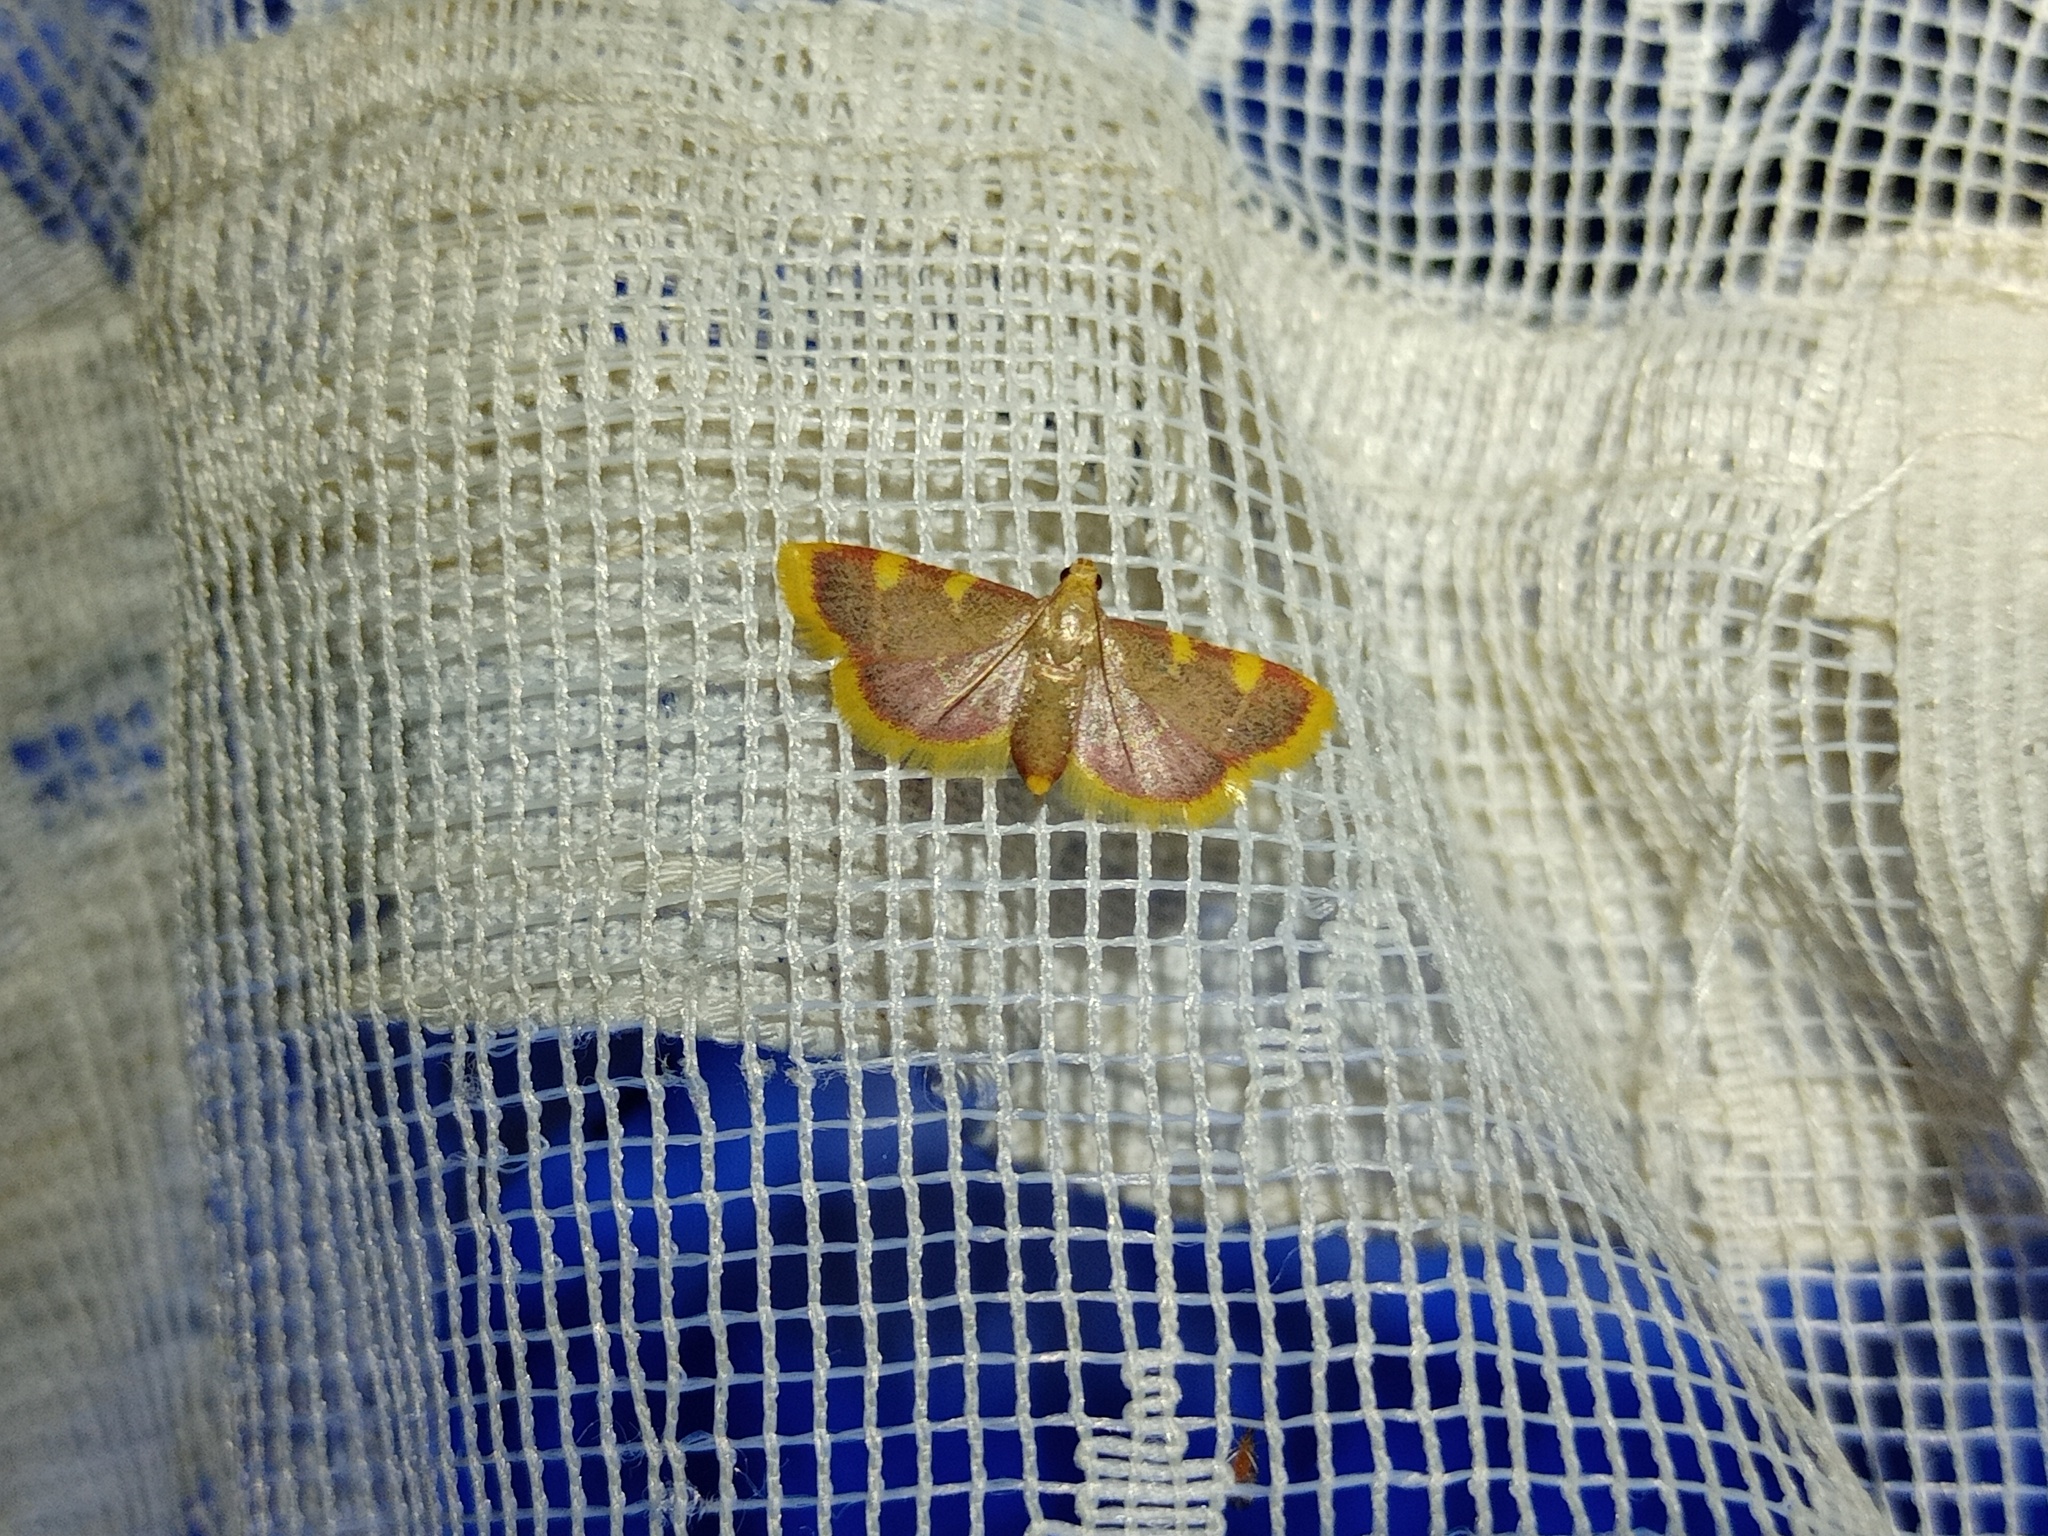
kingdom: Animalia
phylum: Arthropoda
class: Insecta
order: Lepidoptera
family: Pyralidae
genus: Hypsopygia
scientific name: Hypsopygia costalis
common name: Gold triangle
